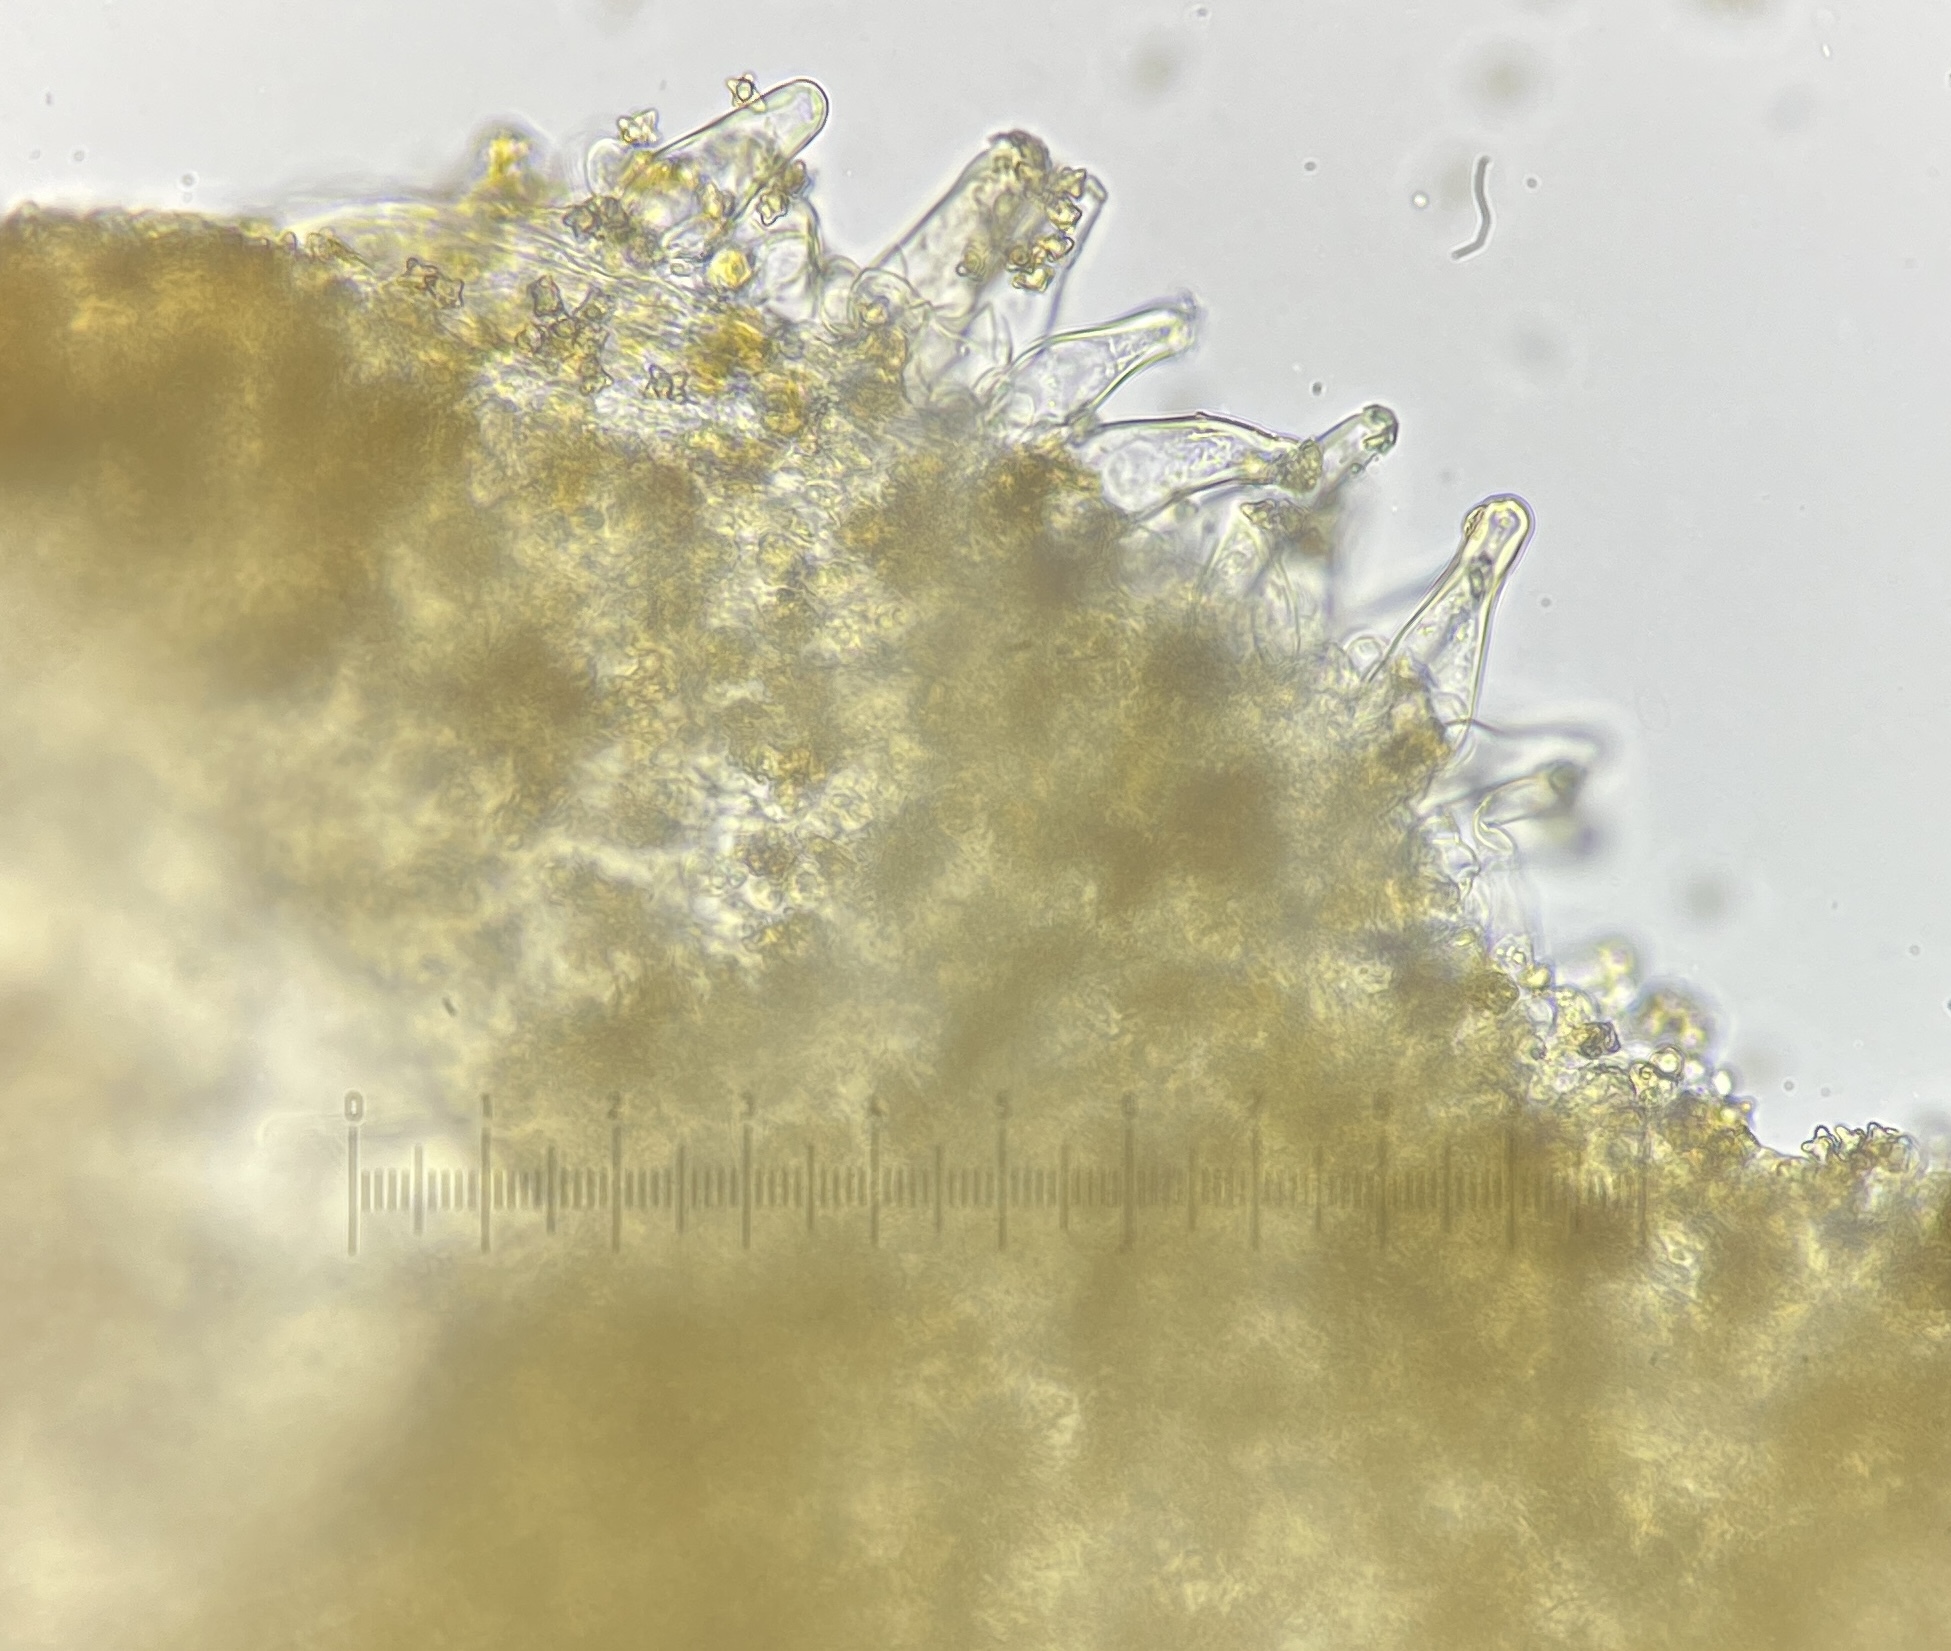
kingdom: Fungi
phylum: Basidiomycota
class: Agaricomycetes
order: Agaricales
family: Inocybaceae
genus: Inocybe
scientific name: Inocybe pseudoasterospora
